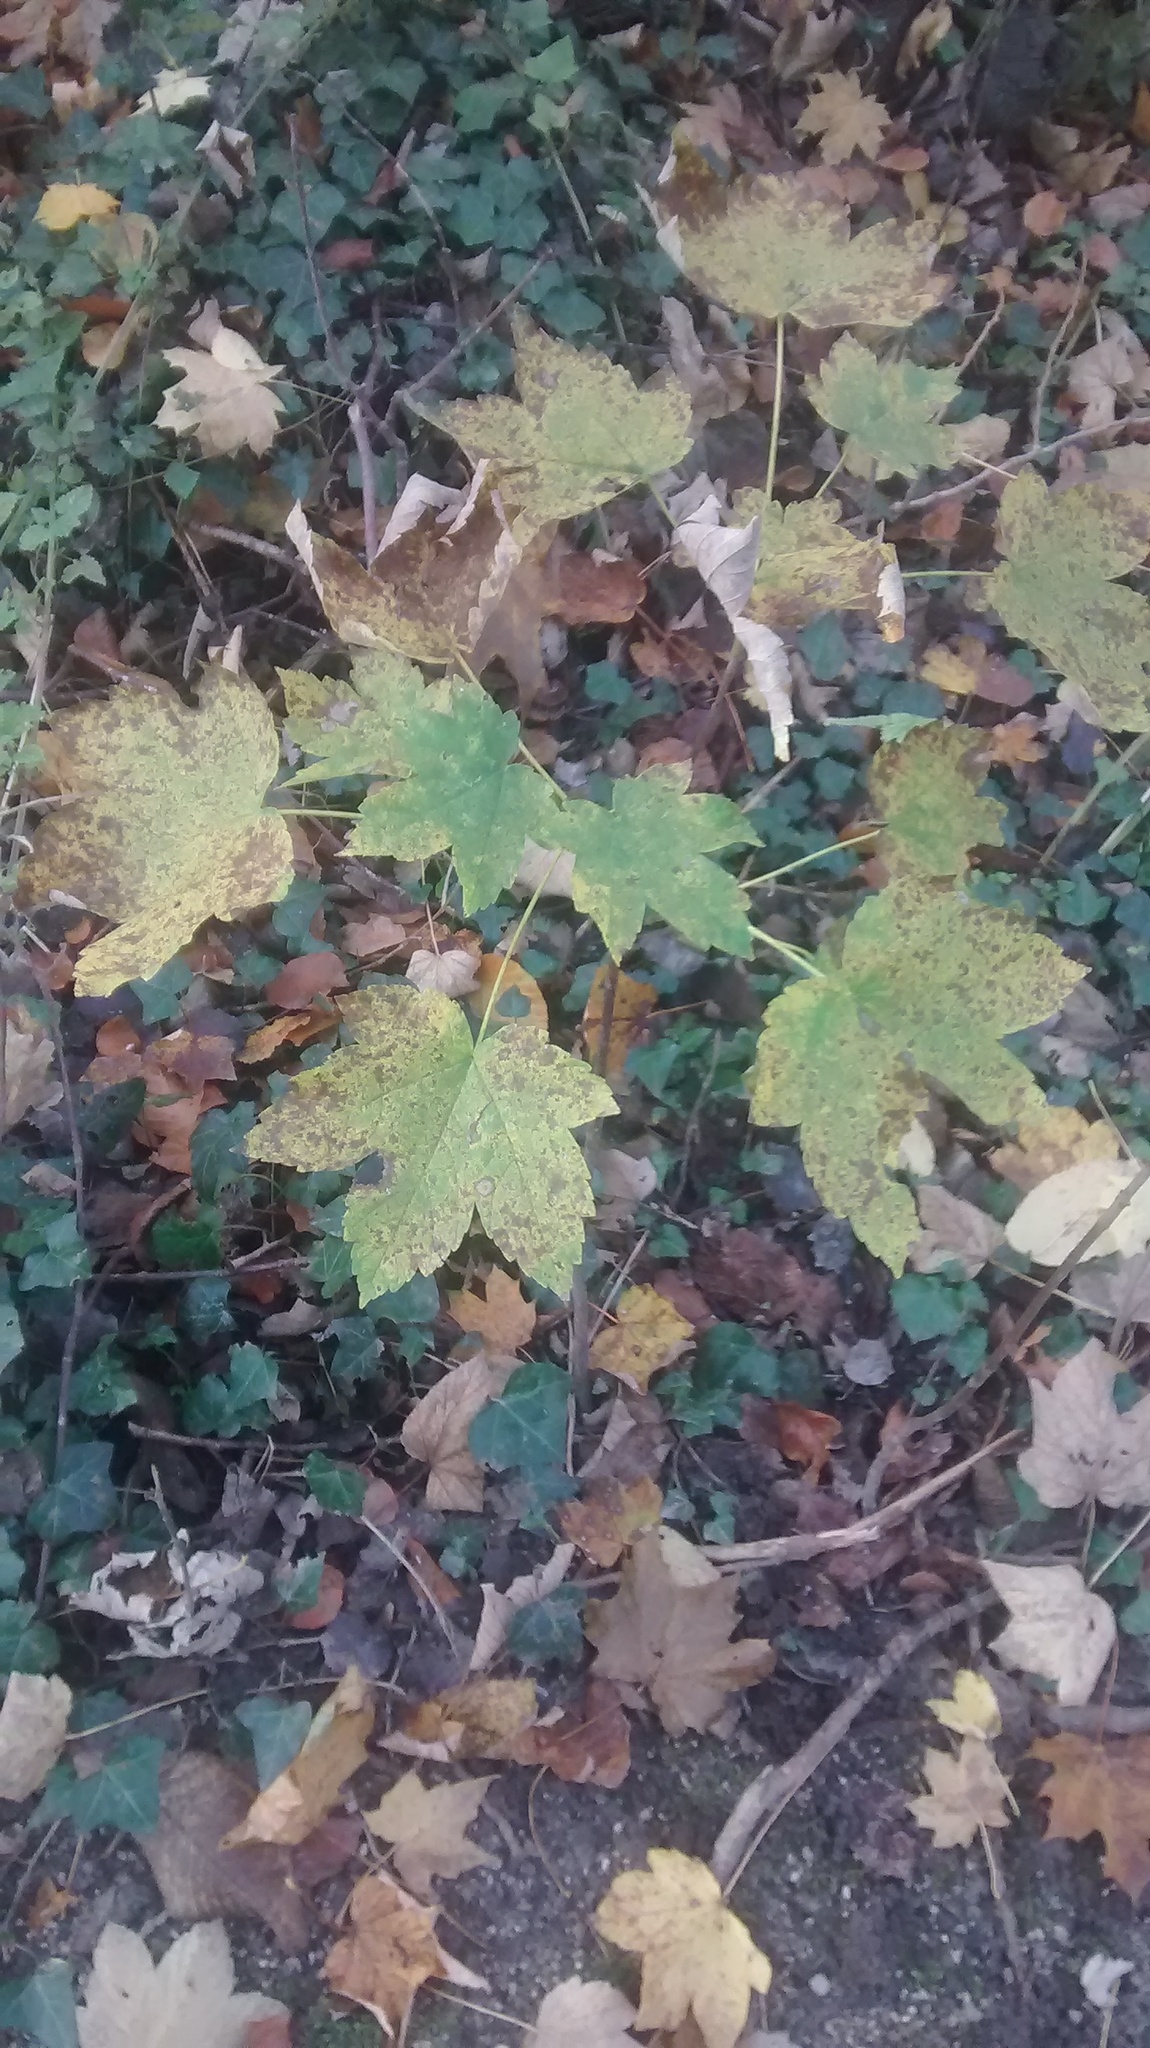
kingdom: Plantae
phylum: Tracheophyta
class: Magnoliopsida
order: Sapindales
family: Sapindaceae
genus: Acer
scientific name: Acer pseudoplatanus
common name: Sycamore
